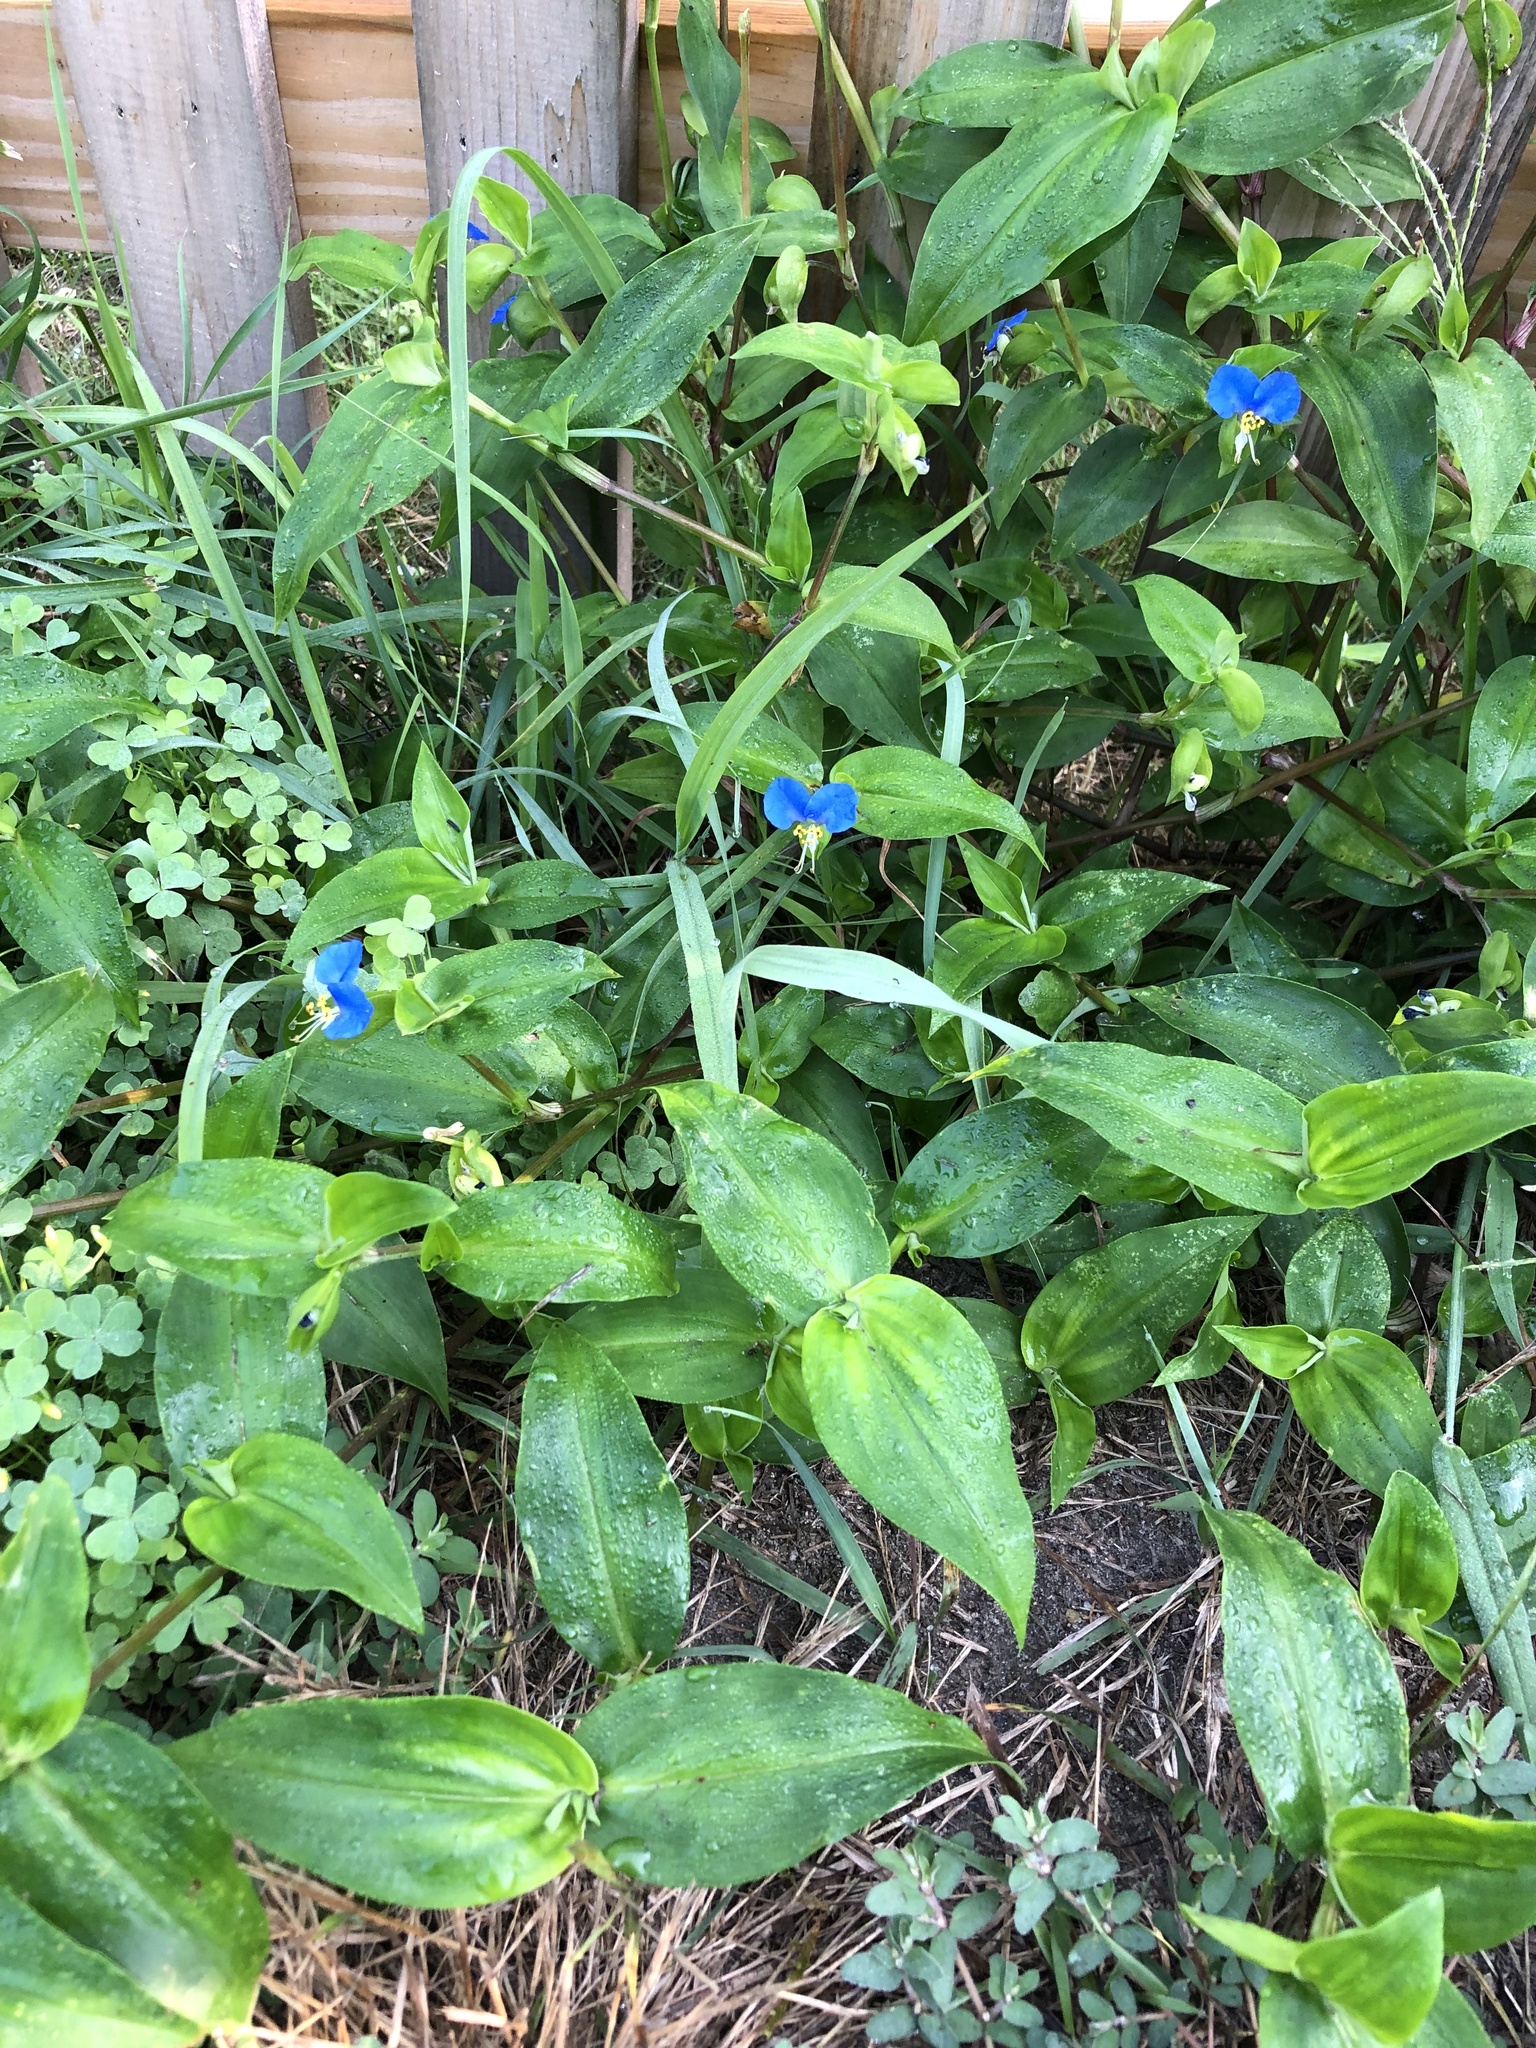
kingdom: Plantae
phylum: Tracheophyta
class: Liliopsida
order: Commelinales
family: Commelinaceae
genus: Commelina
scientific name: Commelina communis
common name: Asiatic dayflower
